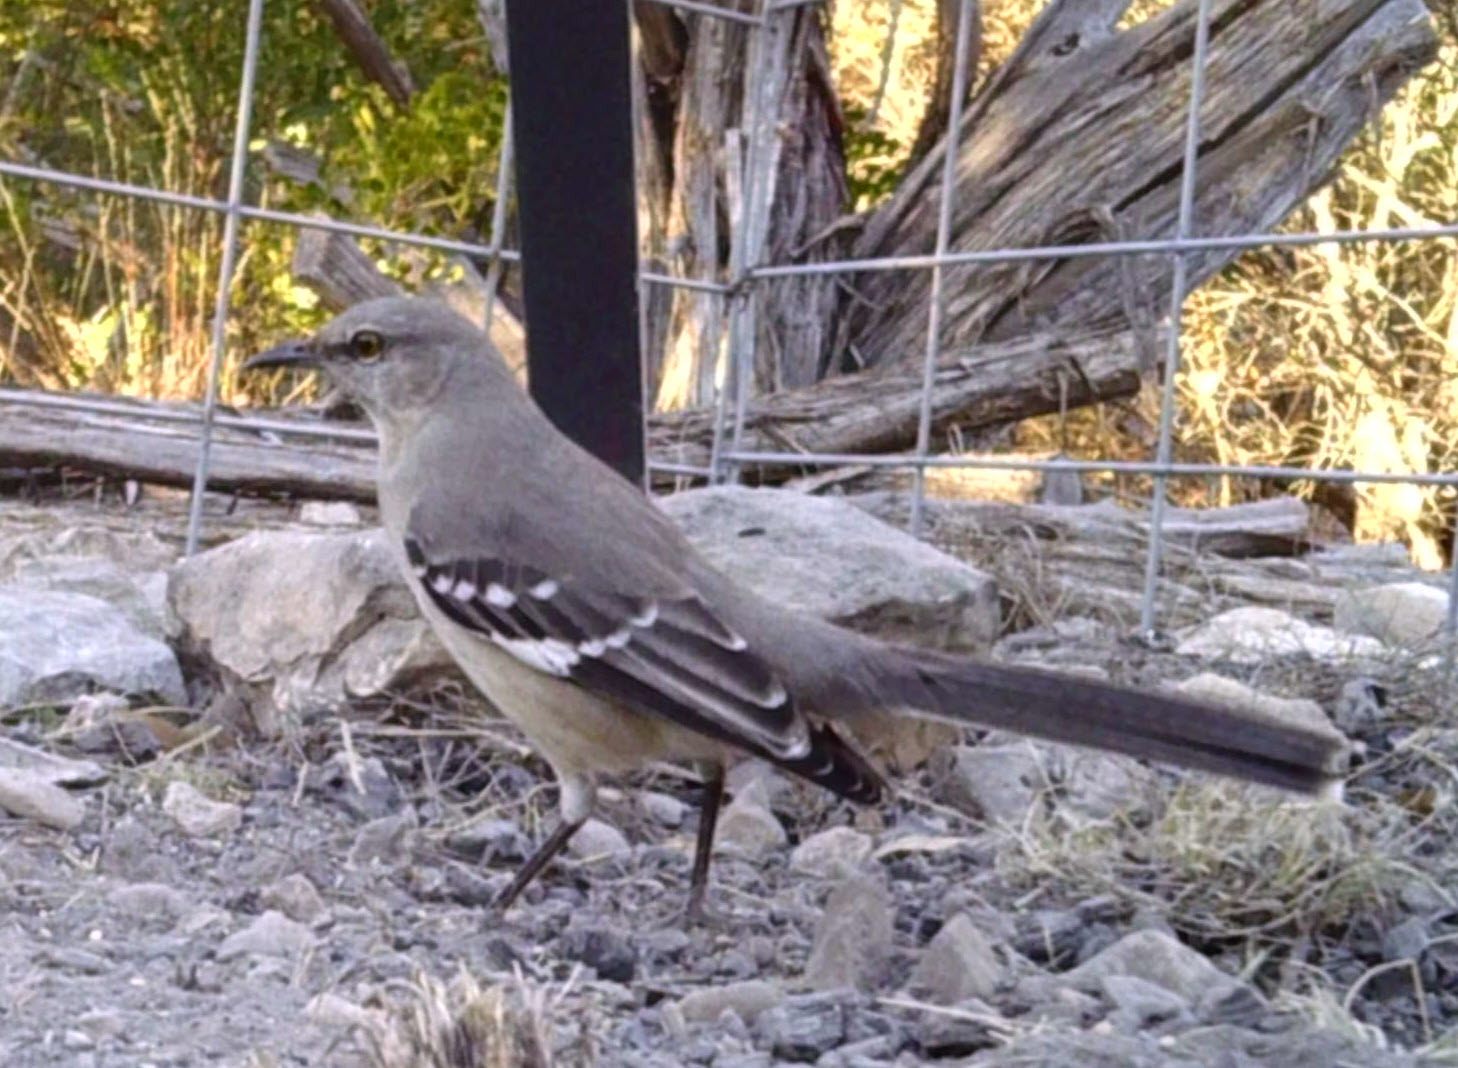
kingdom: Animalia
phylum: Chordata
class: Aves
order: Passeriformes
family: Mimidae
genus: Mimus
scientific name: Mimus polyglottos
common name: Northern mockingbird
